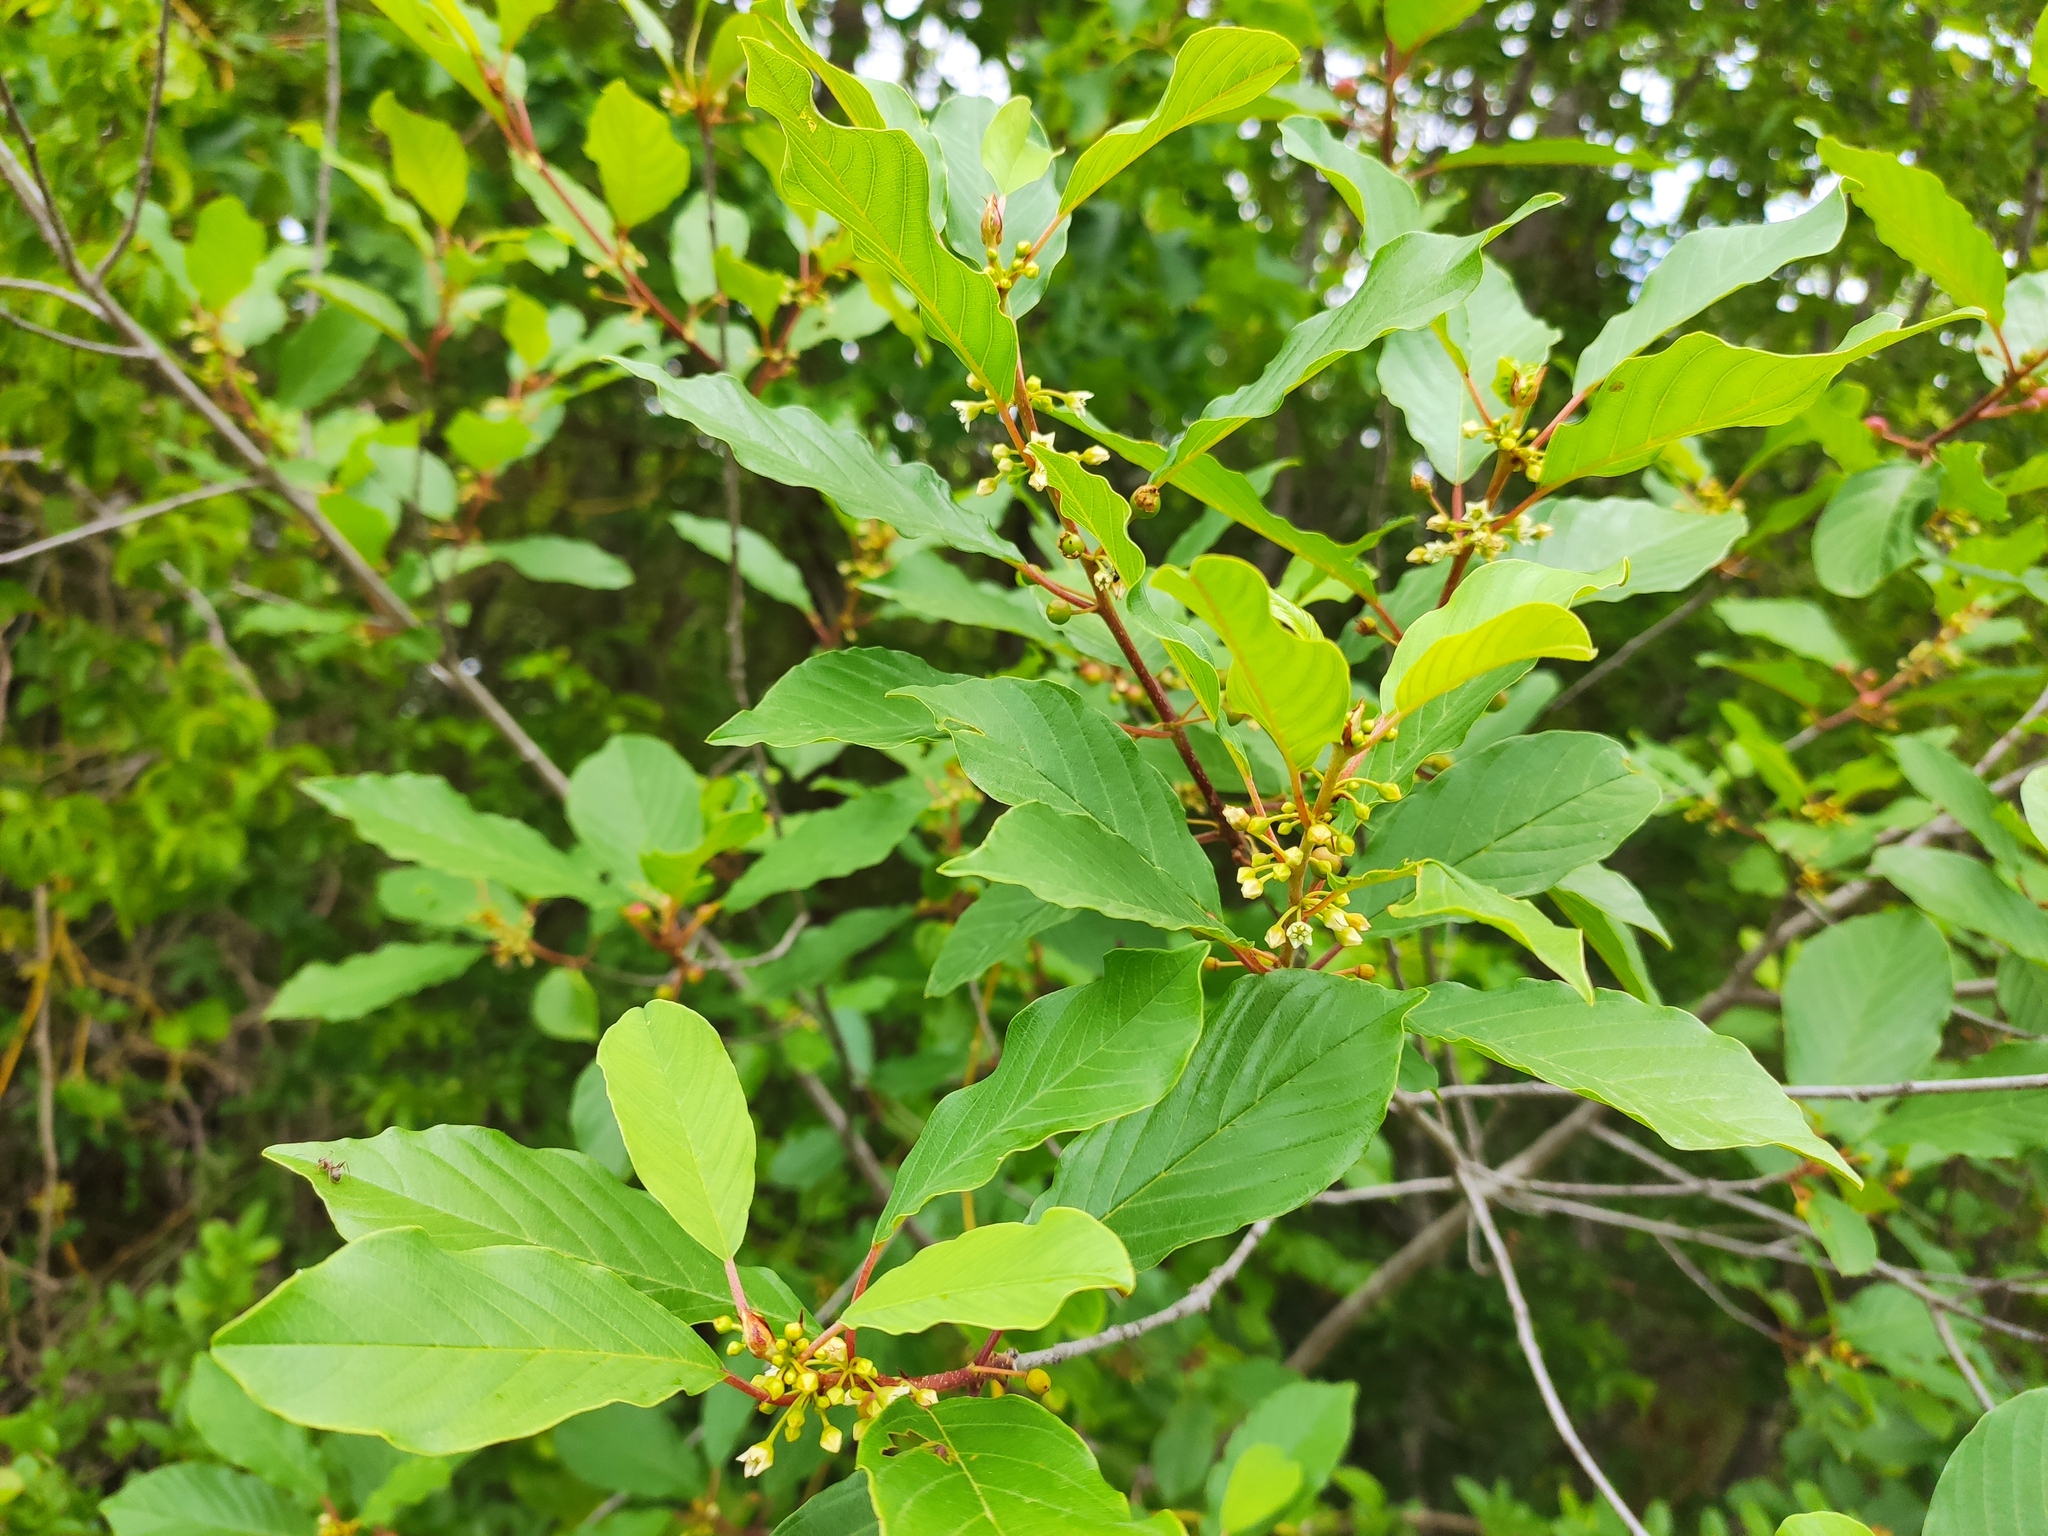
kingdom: Plantae
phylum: Tracheophyta
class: Magnoliopsida
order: Rosales
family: Rhamnaceae
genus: Frangula
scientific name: Frangula alnus
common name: Alder buckthorn
